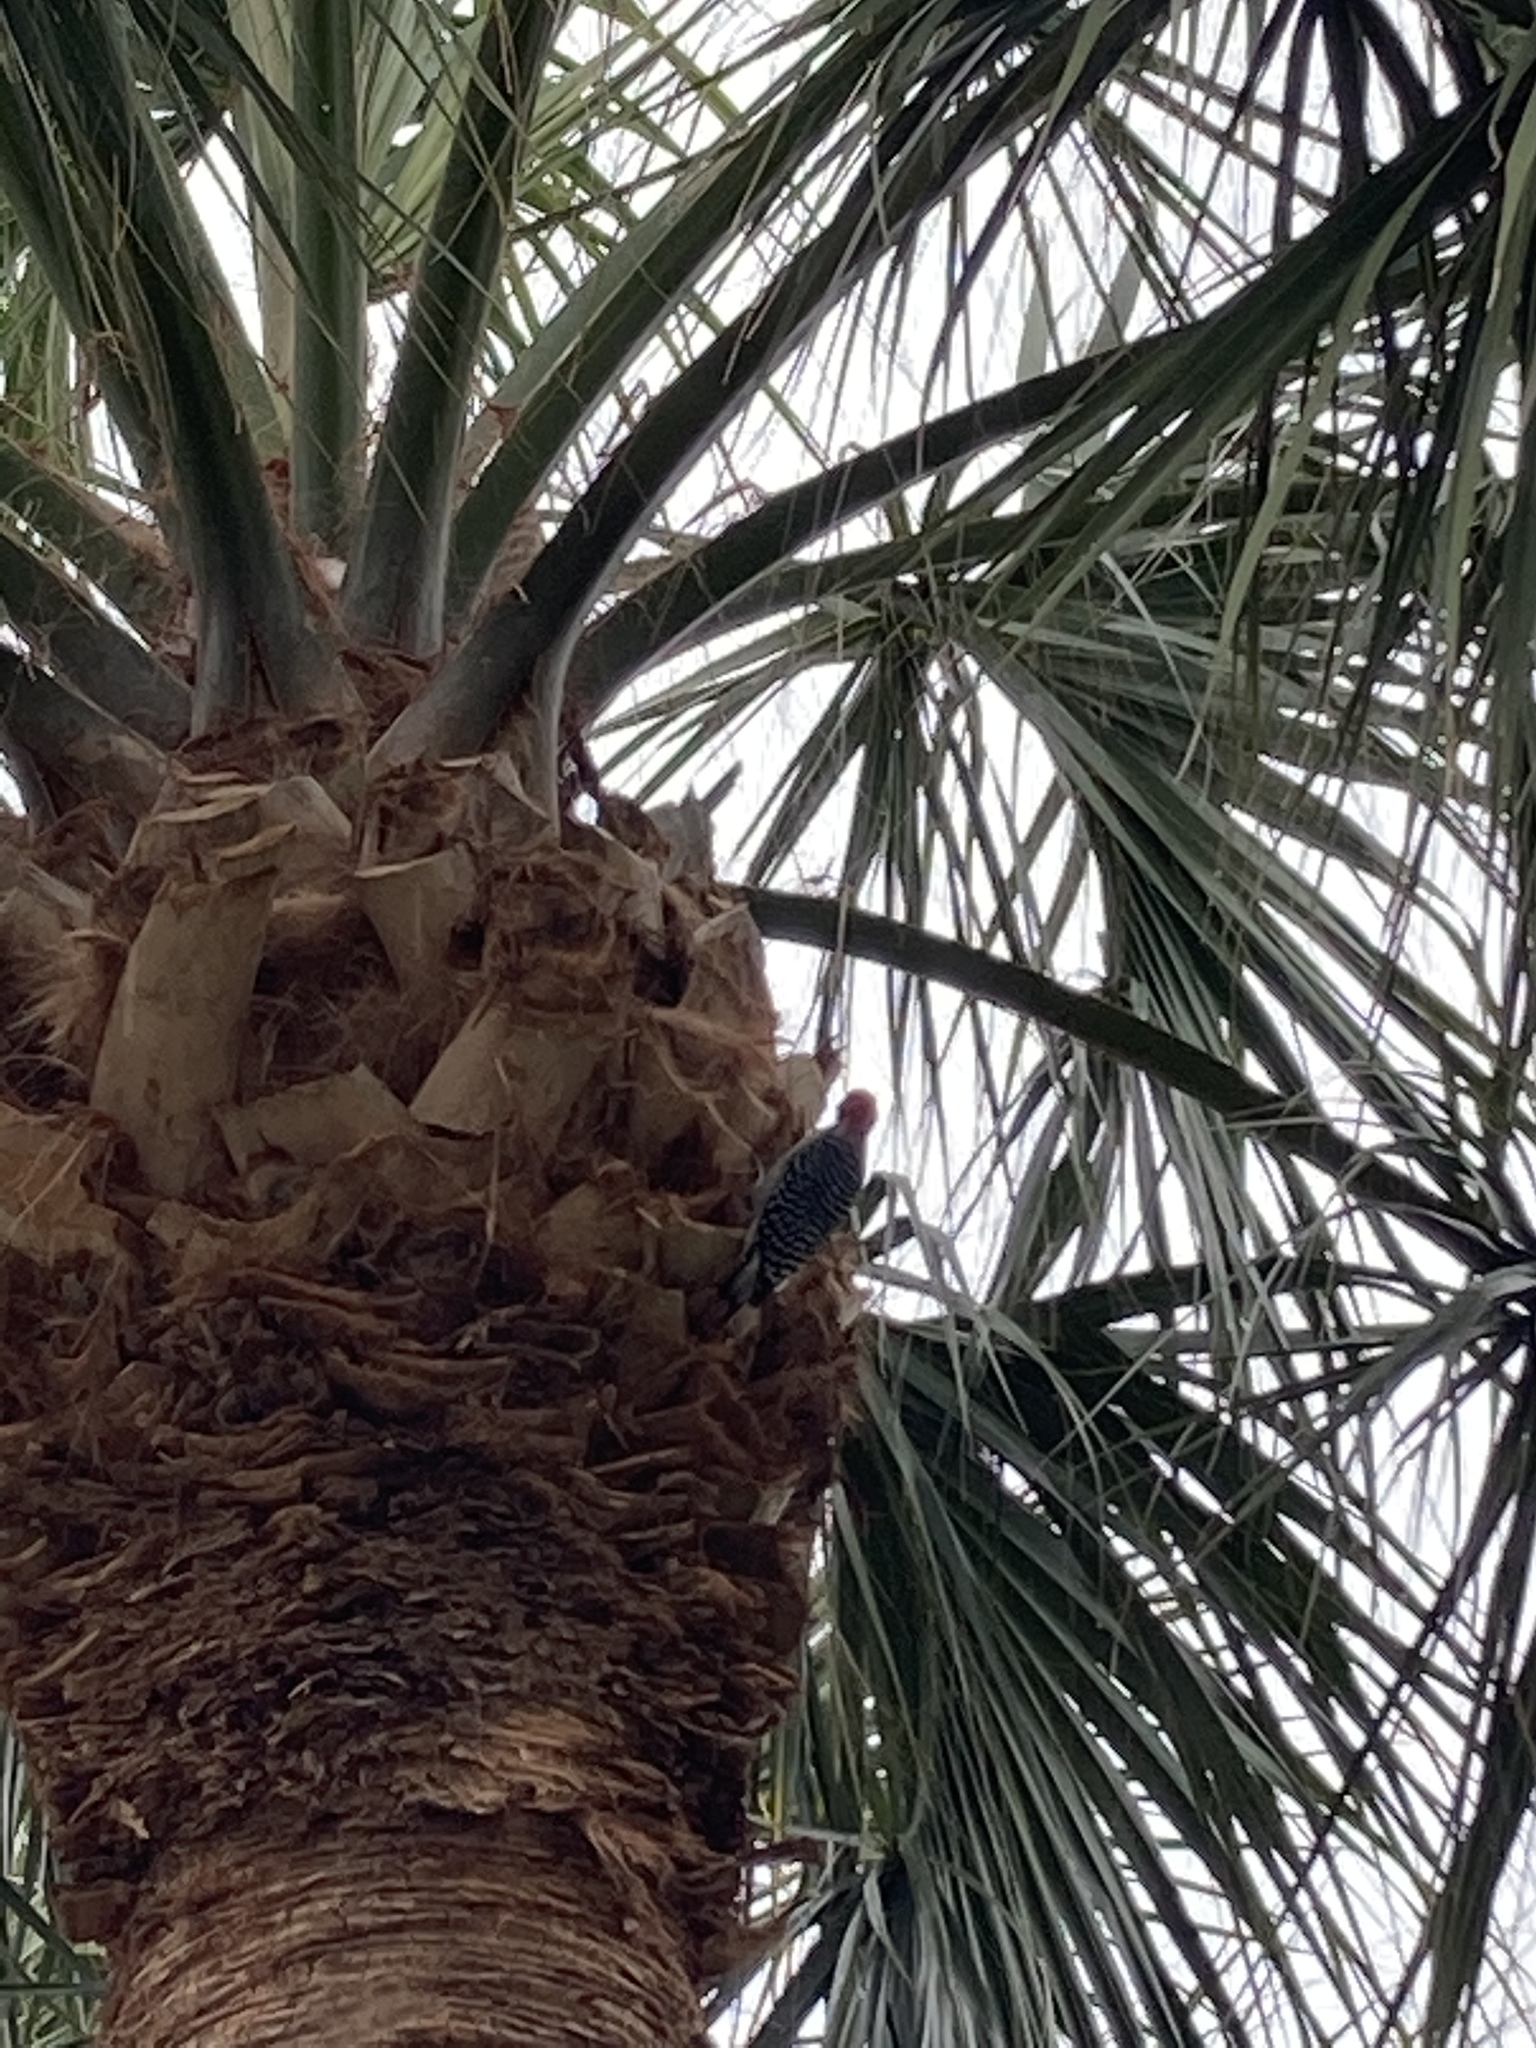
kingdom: Animalia
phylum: Chordata
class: Aves
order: Piciformes
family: Picidae
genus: Melanerpes
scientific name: Melanerpes carolinus
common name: Red-bellied woodpecker
